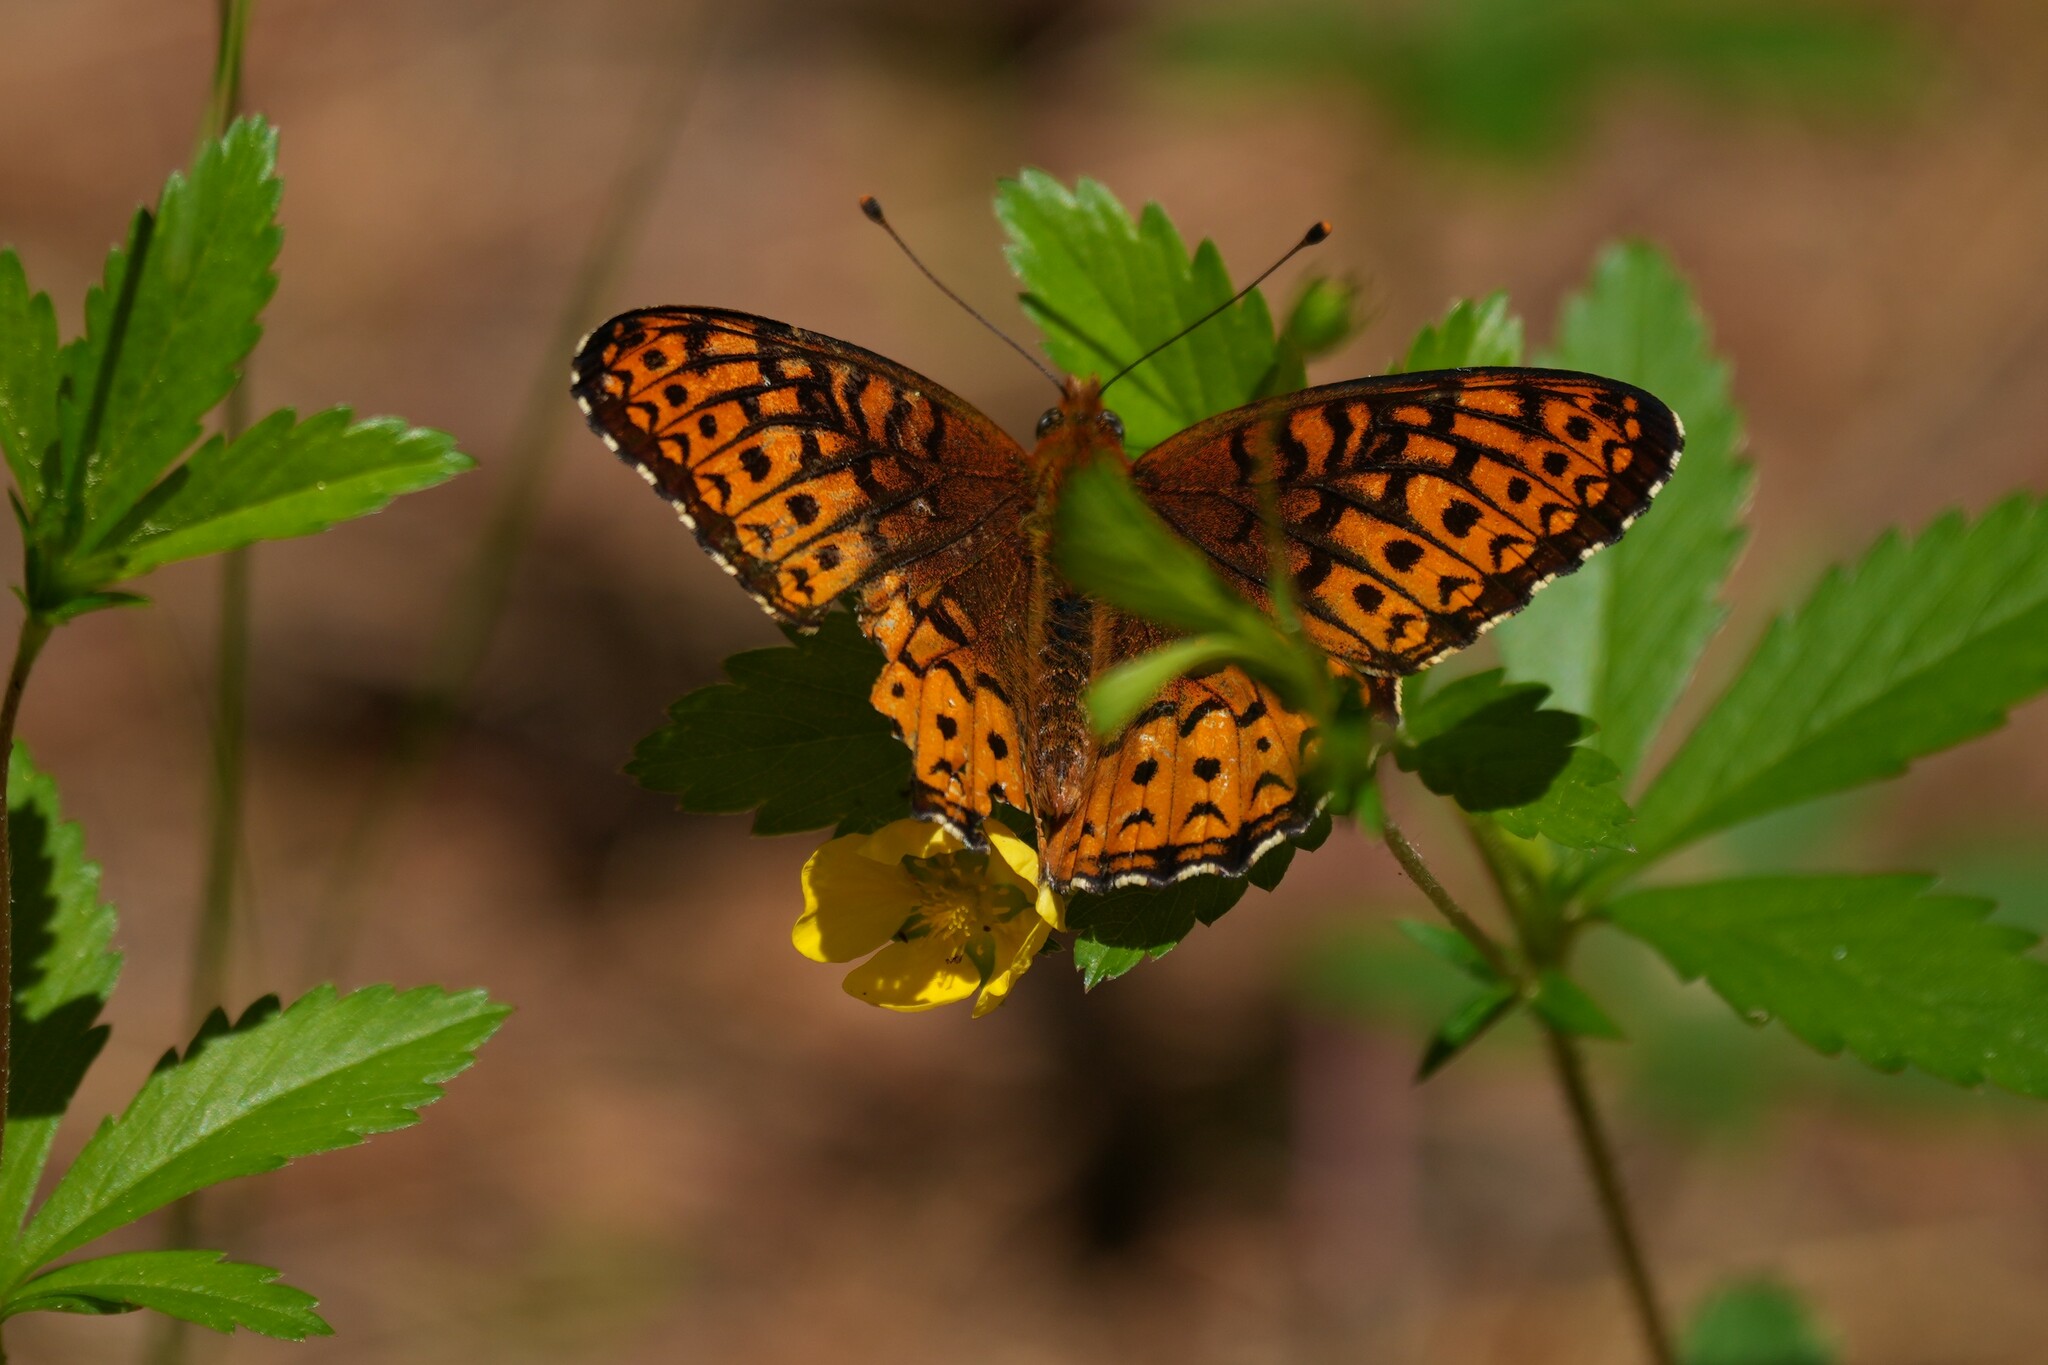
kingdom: Animalia
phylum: Arthropoda
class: Insecta
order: Lepidoptera
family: Nymphalidae
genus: Speyeria
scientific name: Speyeria atlantis
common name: Atlantis fritillary
